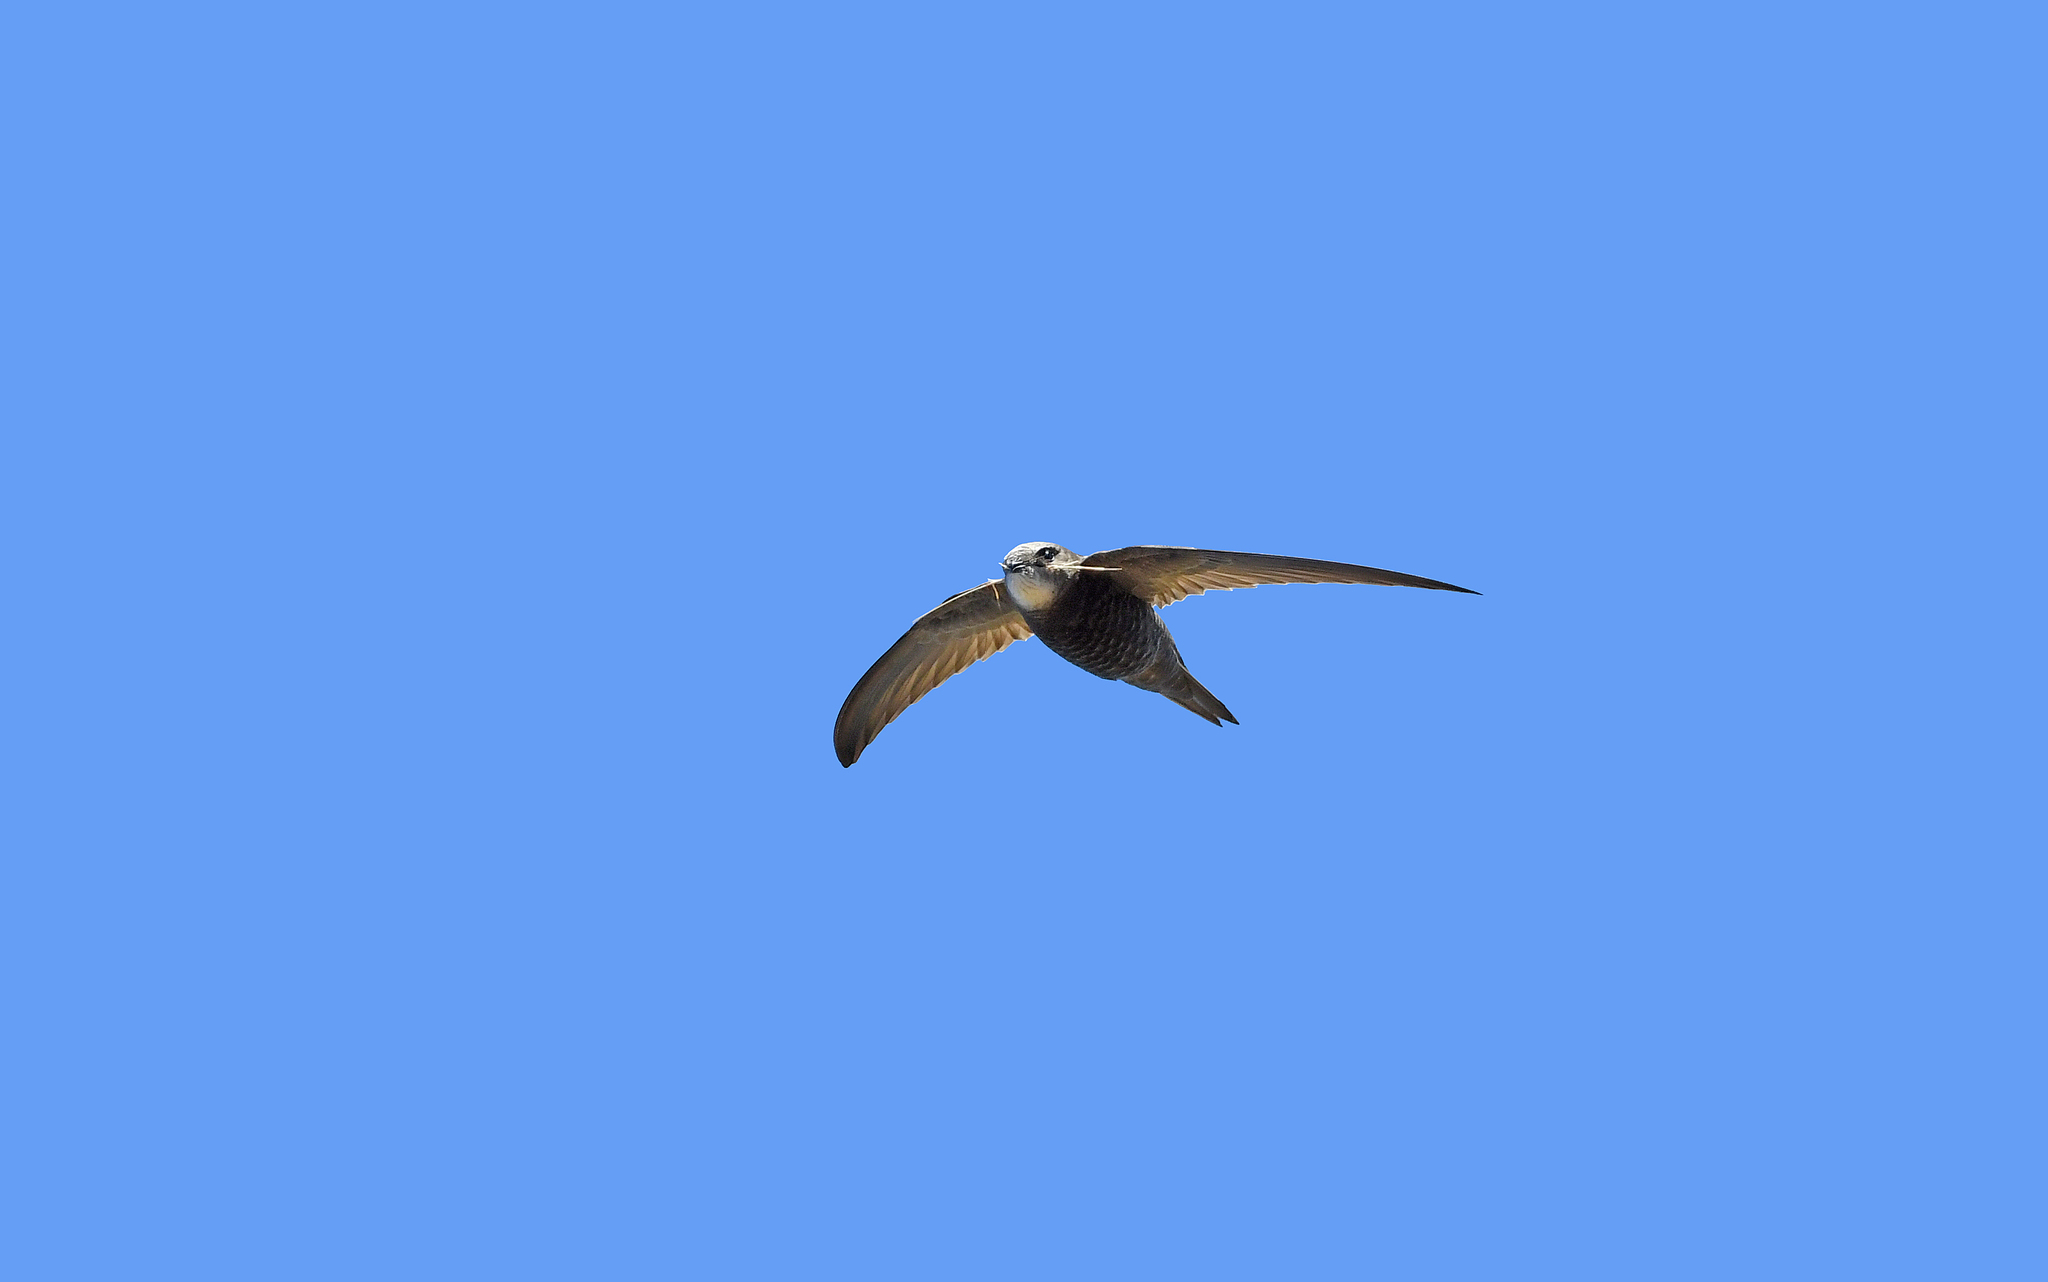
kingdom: Animalia
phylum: Chordata
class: Aves
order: Apodiformes
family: Apodidae
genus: Apus
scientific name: Apus pallidus
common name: Pallid swift
